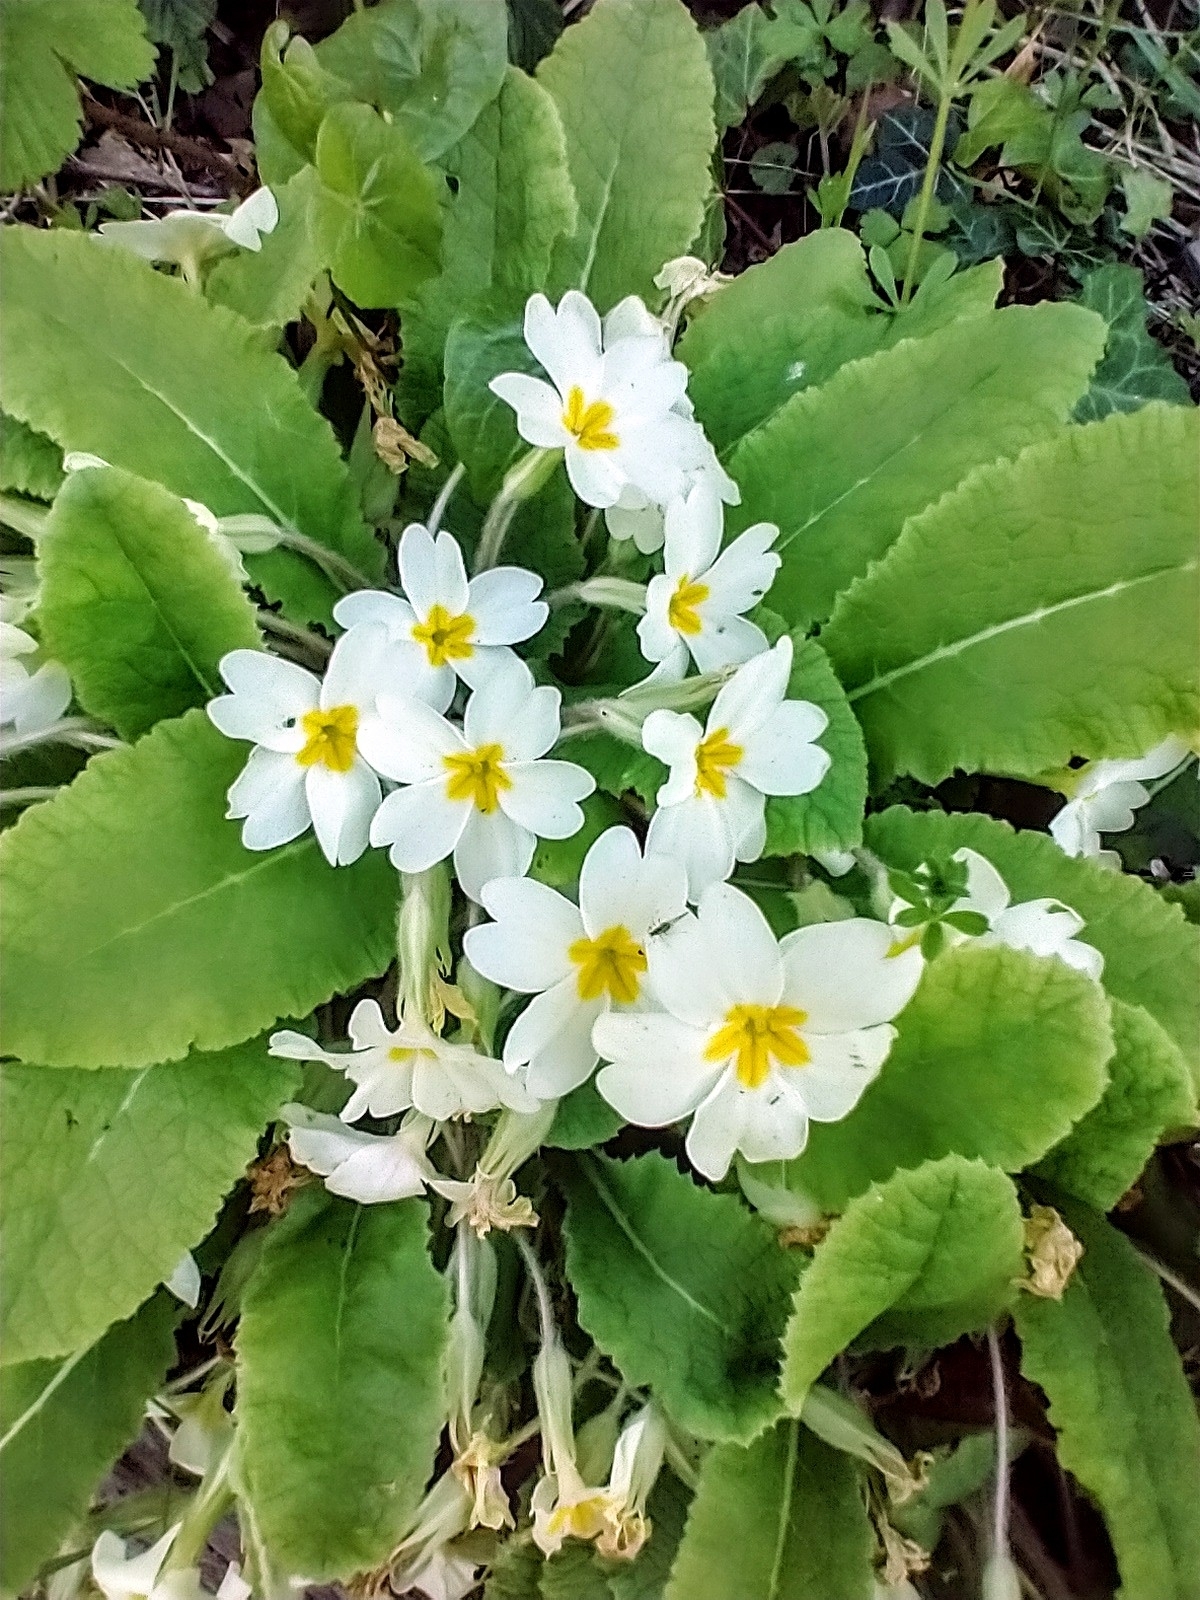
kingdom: Plantae
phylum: Tracheophyta
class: Magnoliopsida
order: Ericales
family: Primulaceae
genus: Primula
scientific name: Primula vulgaris
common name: Primrose
